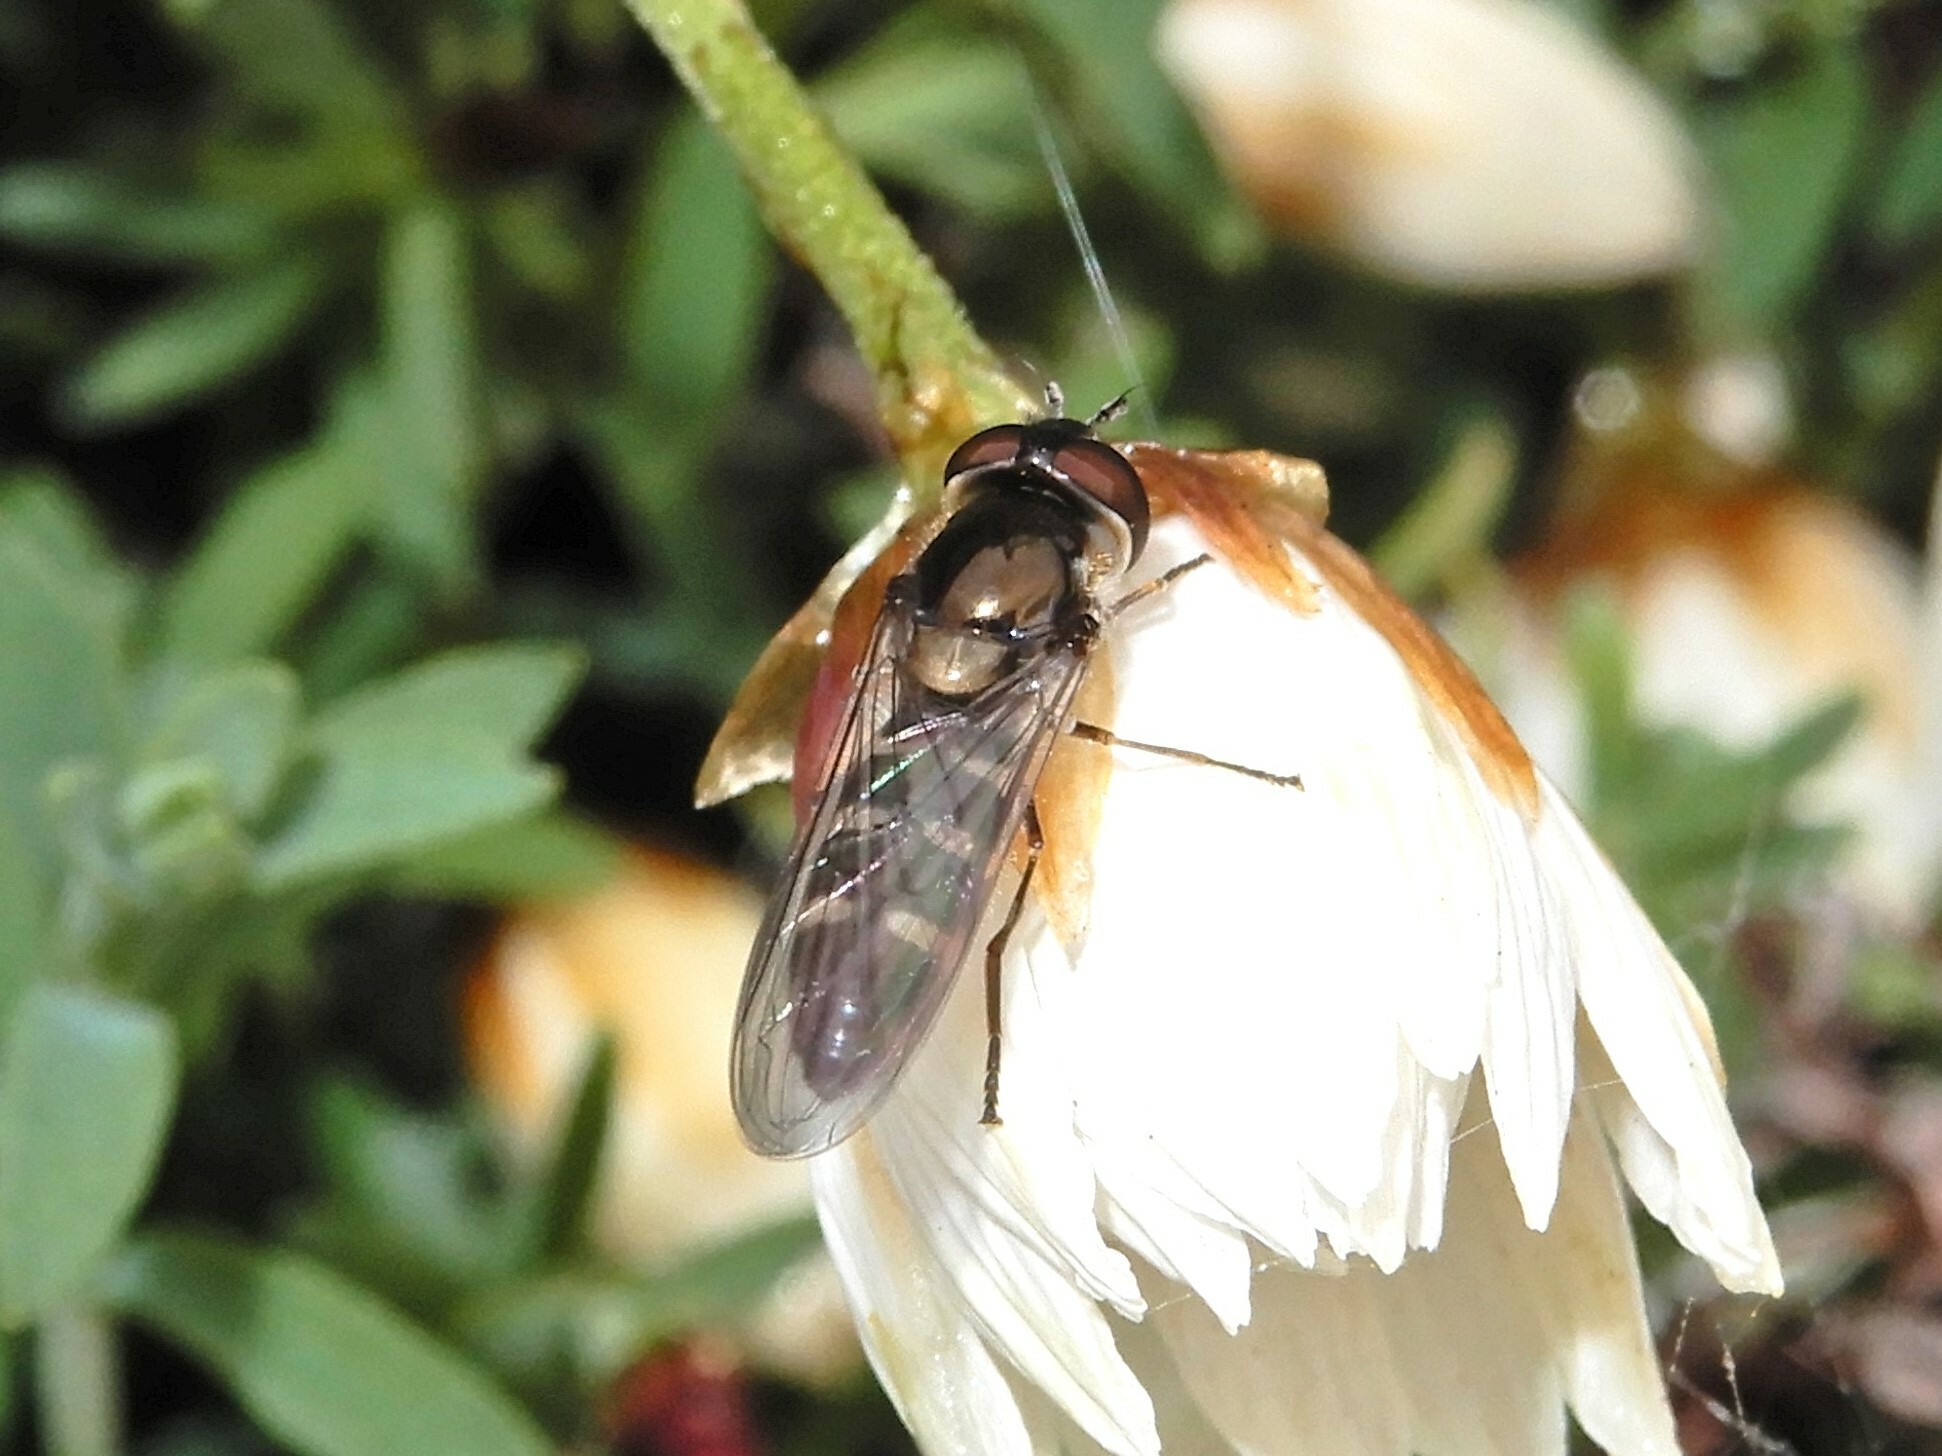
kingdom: Animalia
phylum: Arthropoda
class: Insecta
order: Diptera
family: Syrphidae
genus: Melangyna
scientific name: Melangyna novaezelandiae
